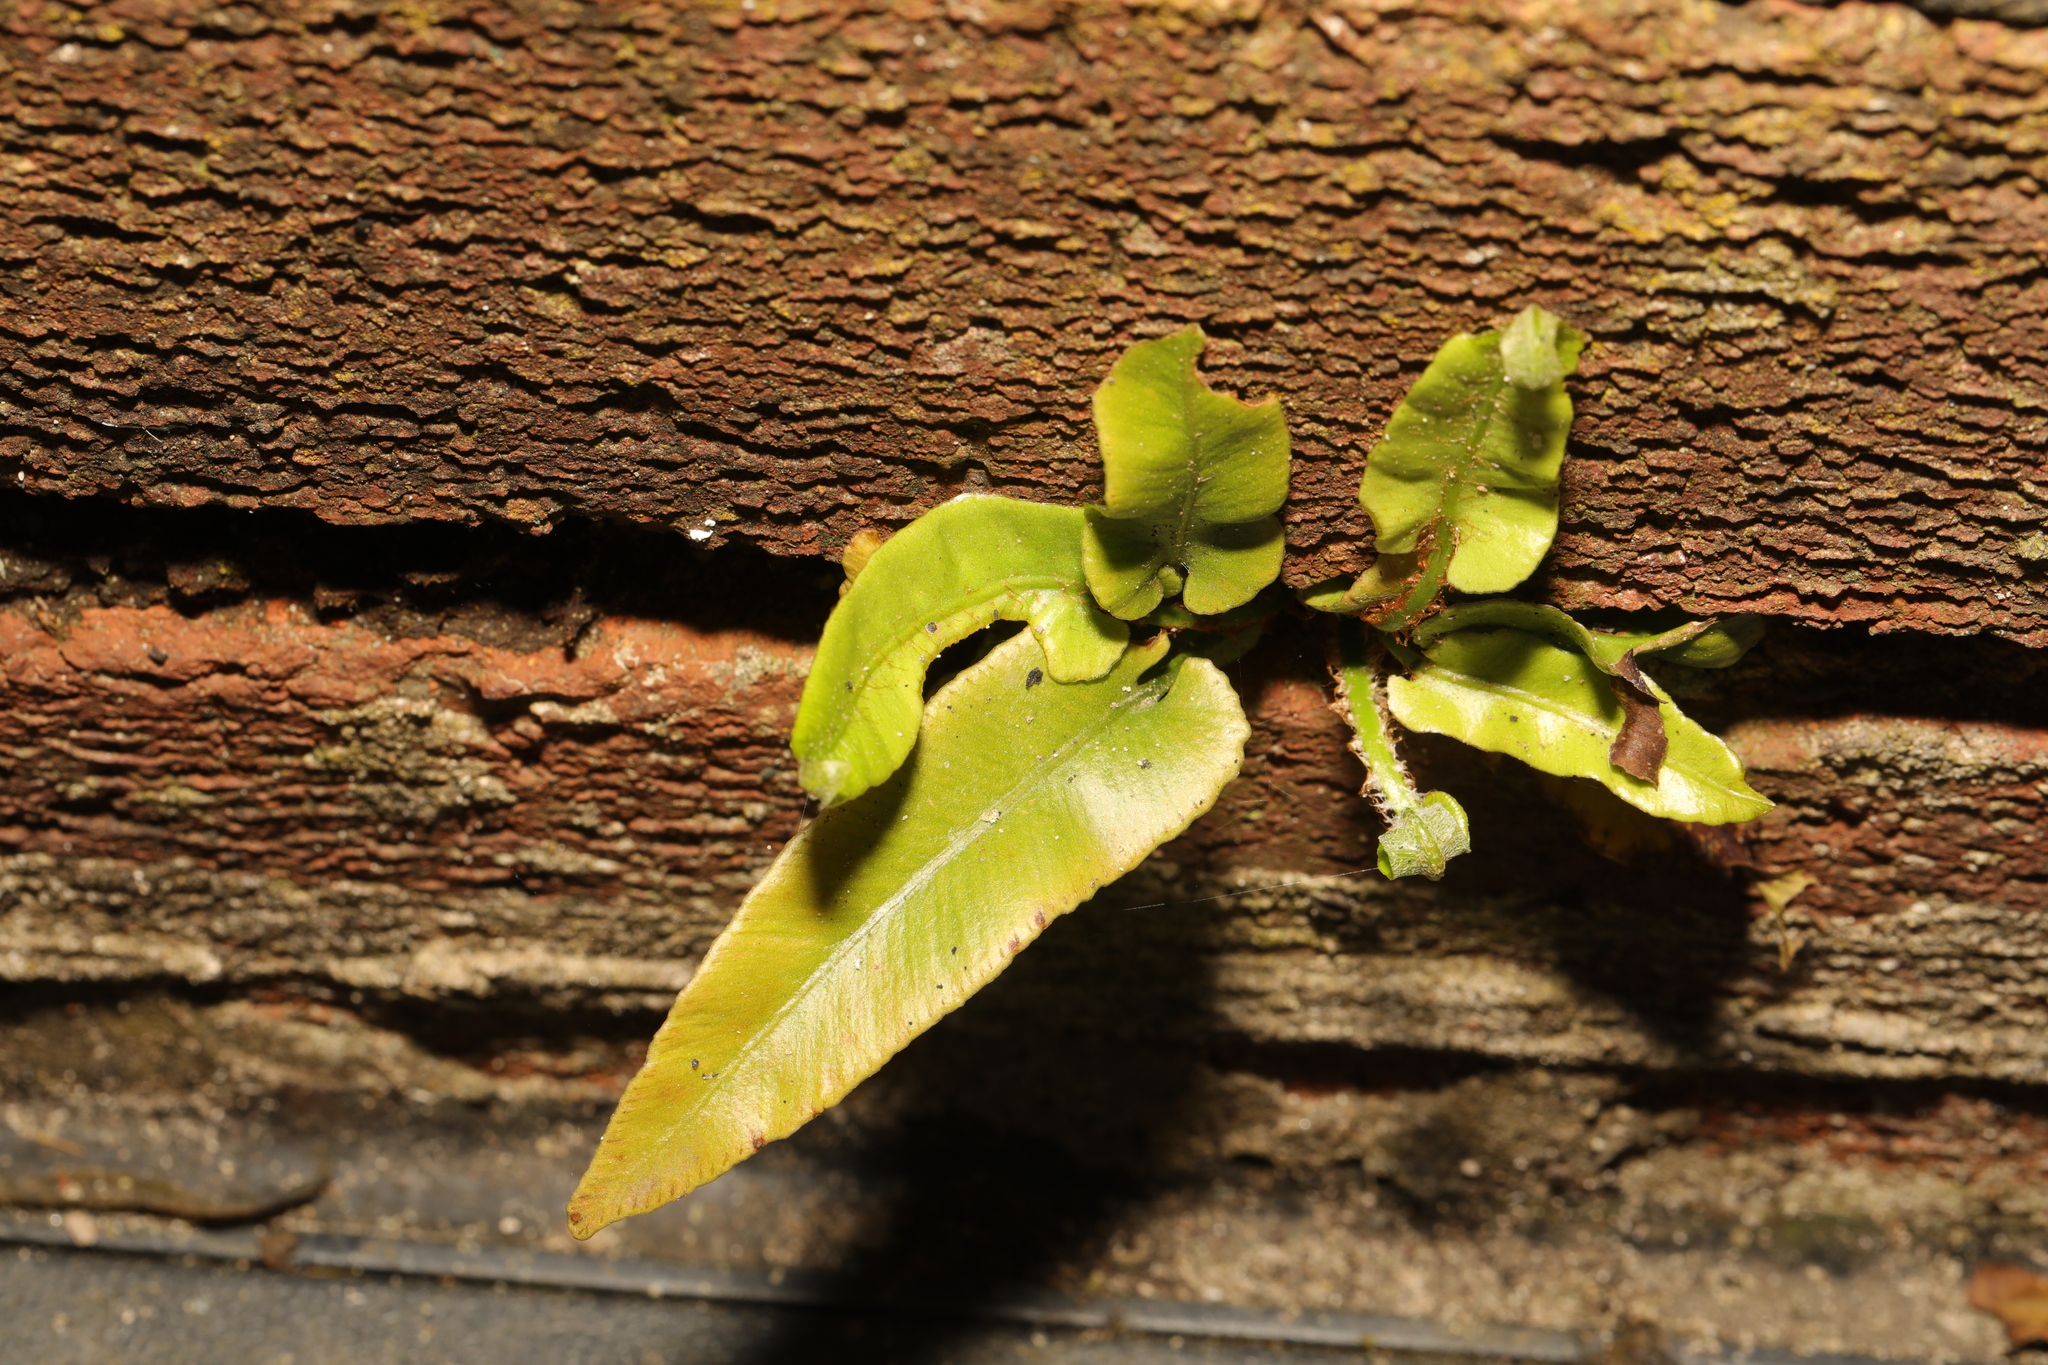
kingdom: Plantae
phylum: Tracheophyta
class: Polypodiopsida
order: Polypodiales
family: Aspleniaceae
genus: Asplenium
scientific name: Asplenium scolopendrium
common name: Hart's-tongue fern
